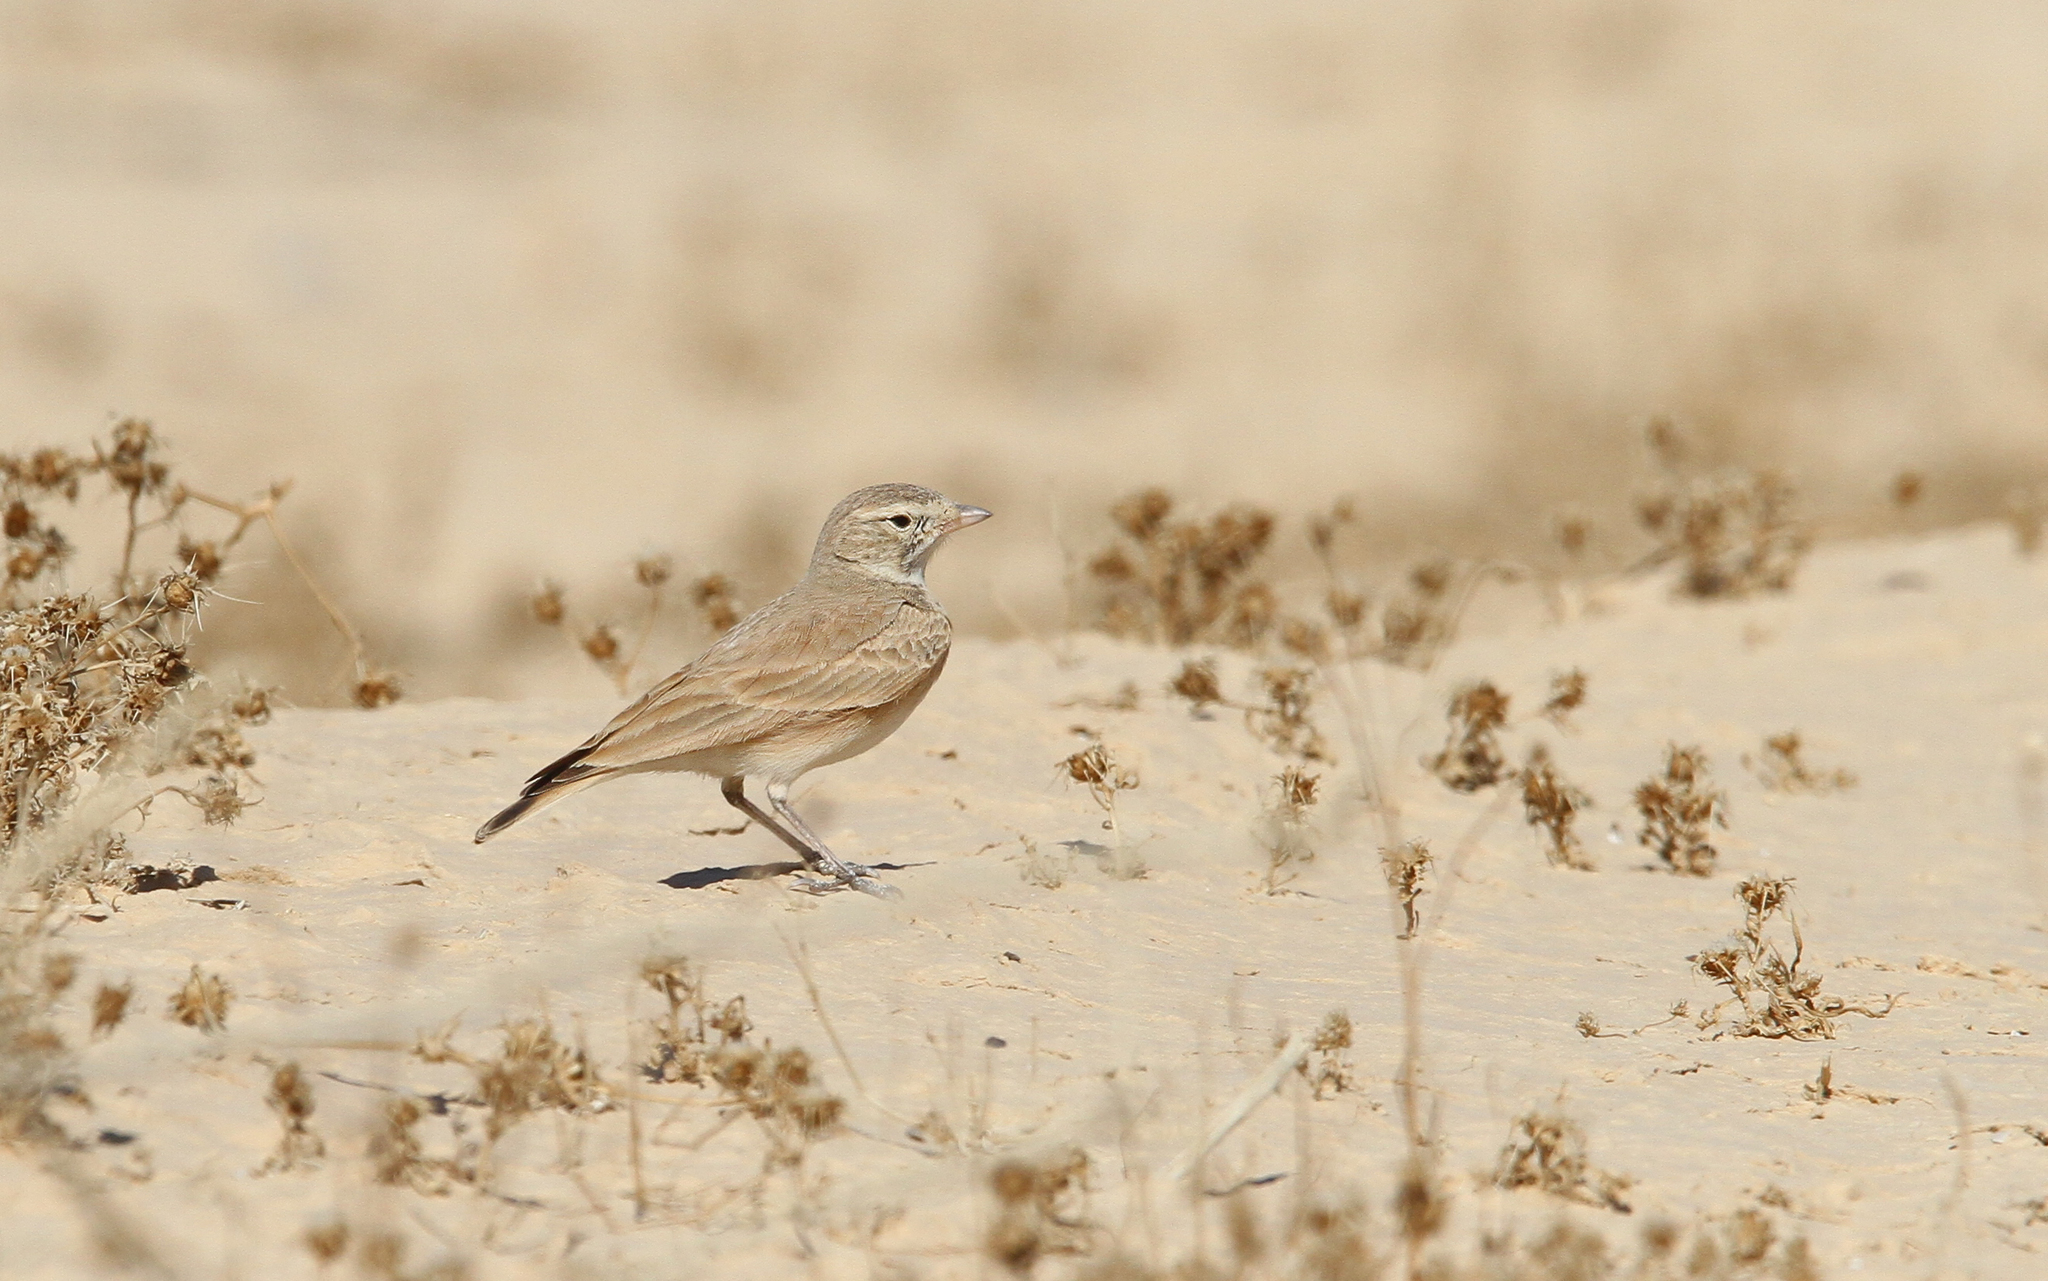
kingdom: Animalia
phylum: Chordata
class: Aves
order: Passeriformes
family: Alaudidae
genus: Ammomanes
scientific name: Ammomanes cinctura
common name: Bar-tailed lark
